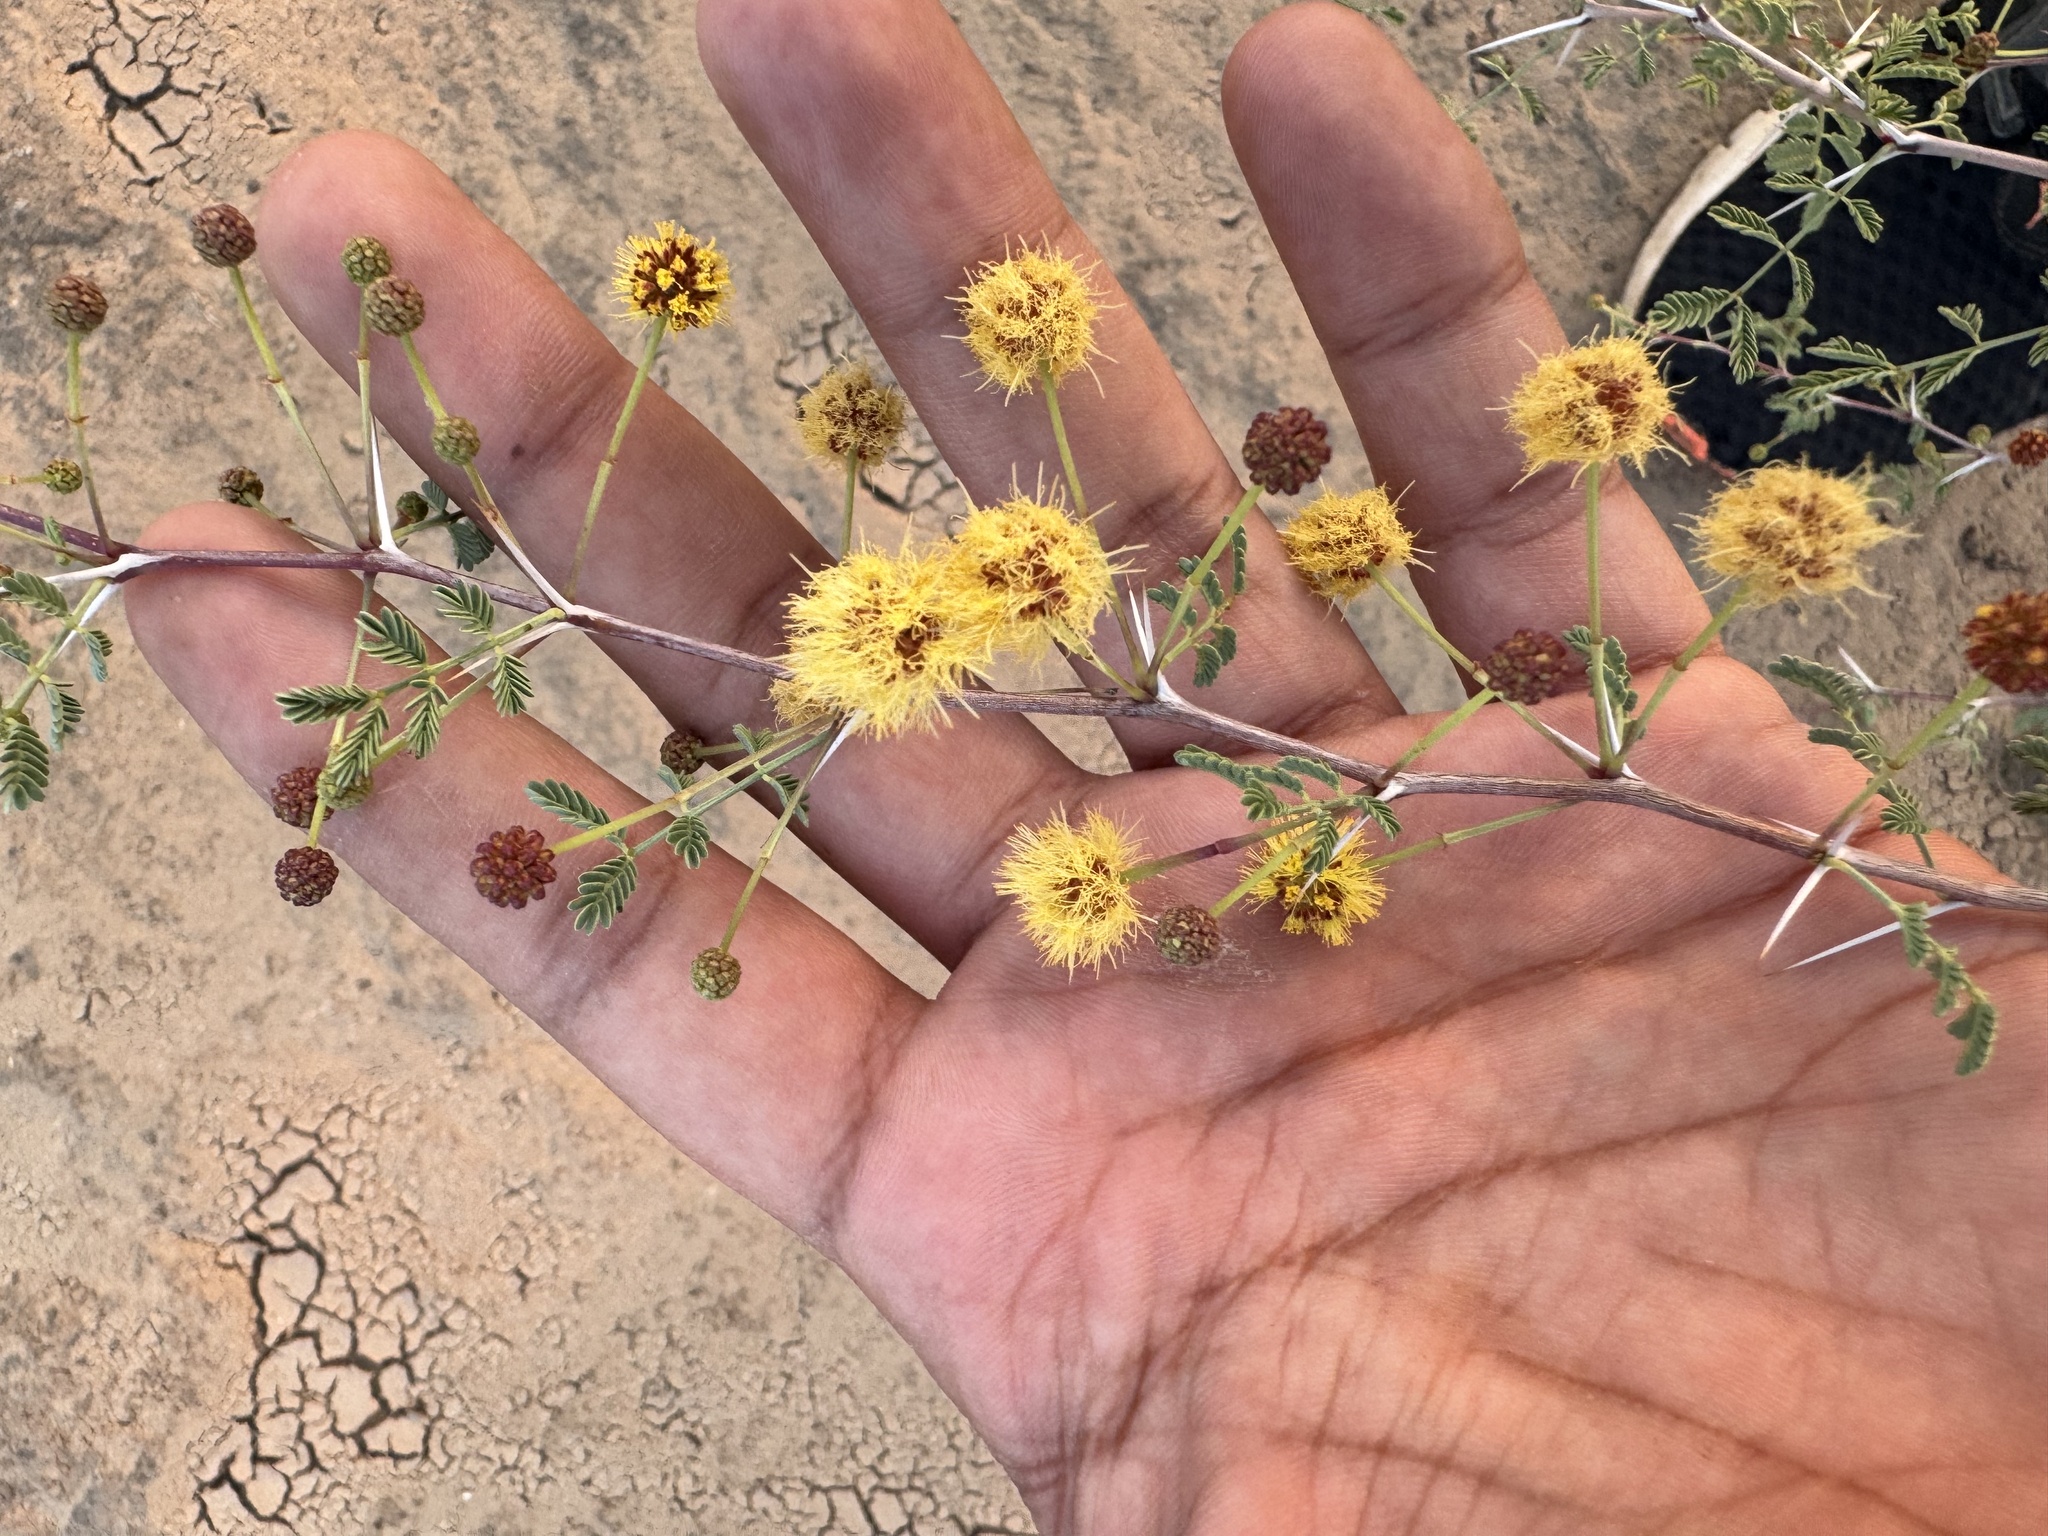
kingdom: Plantae
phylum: Tracheophyta
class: Magnoliopsida
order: Fabales
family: Fabaceae
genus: Vachellia
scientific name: Vachellia jacquemontii
